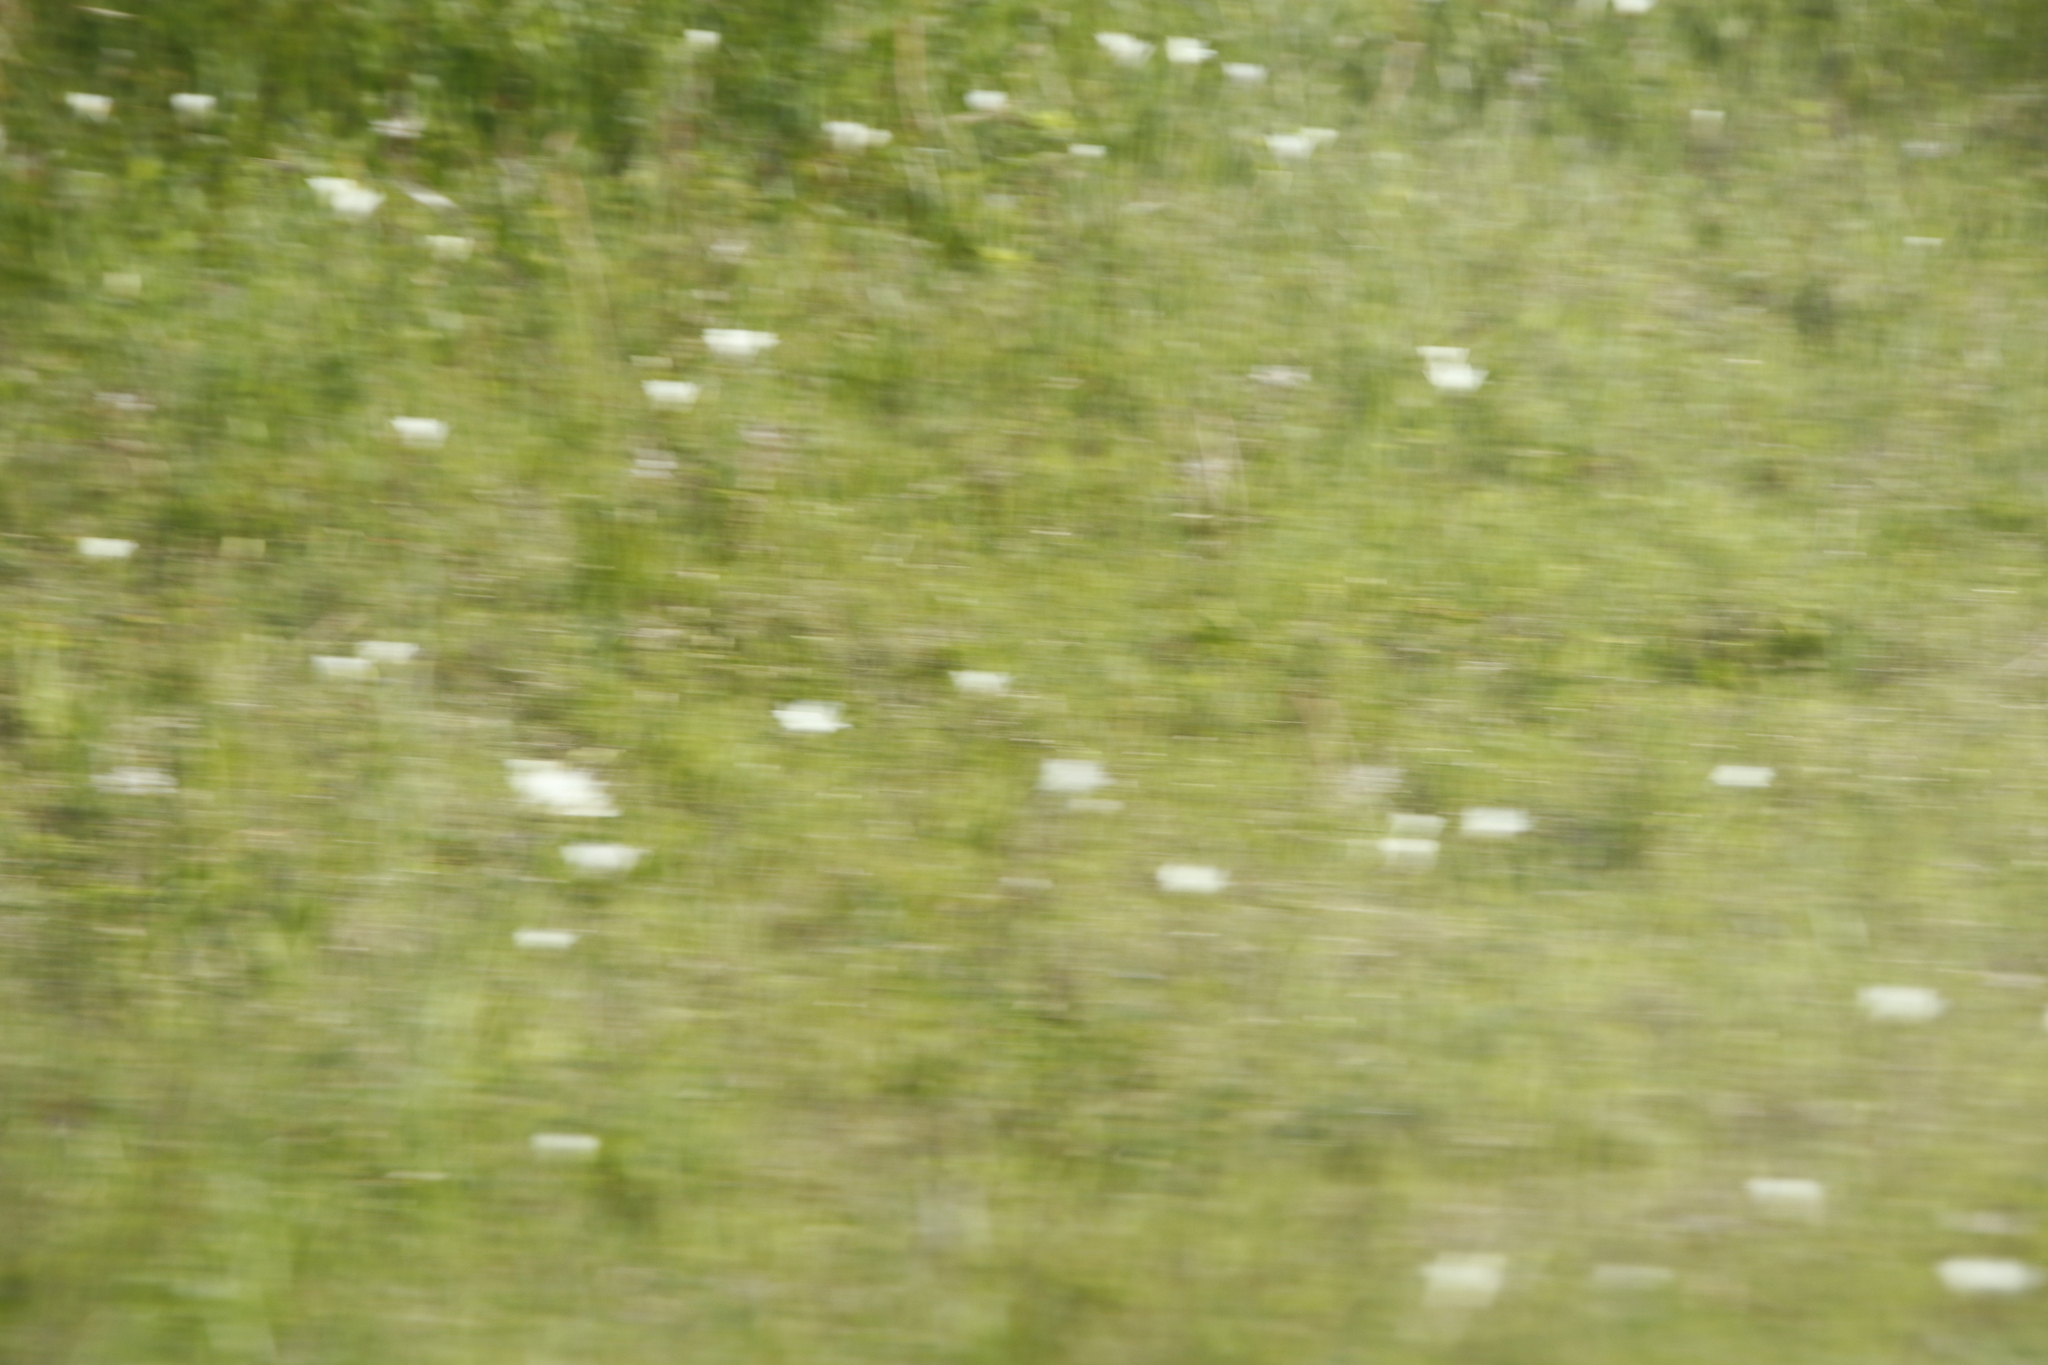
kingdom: Plantae
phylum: Tracheophyta
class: Liliopsida
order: Asparagales
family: Iridaceae
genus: Sparaxis
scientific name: Sparaxis bulbifera
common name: Harlequin-flower
